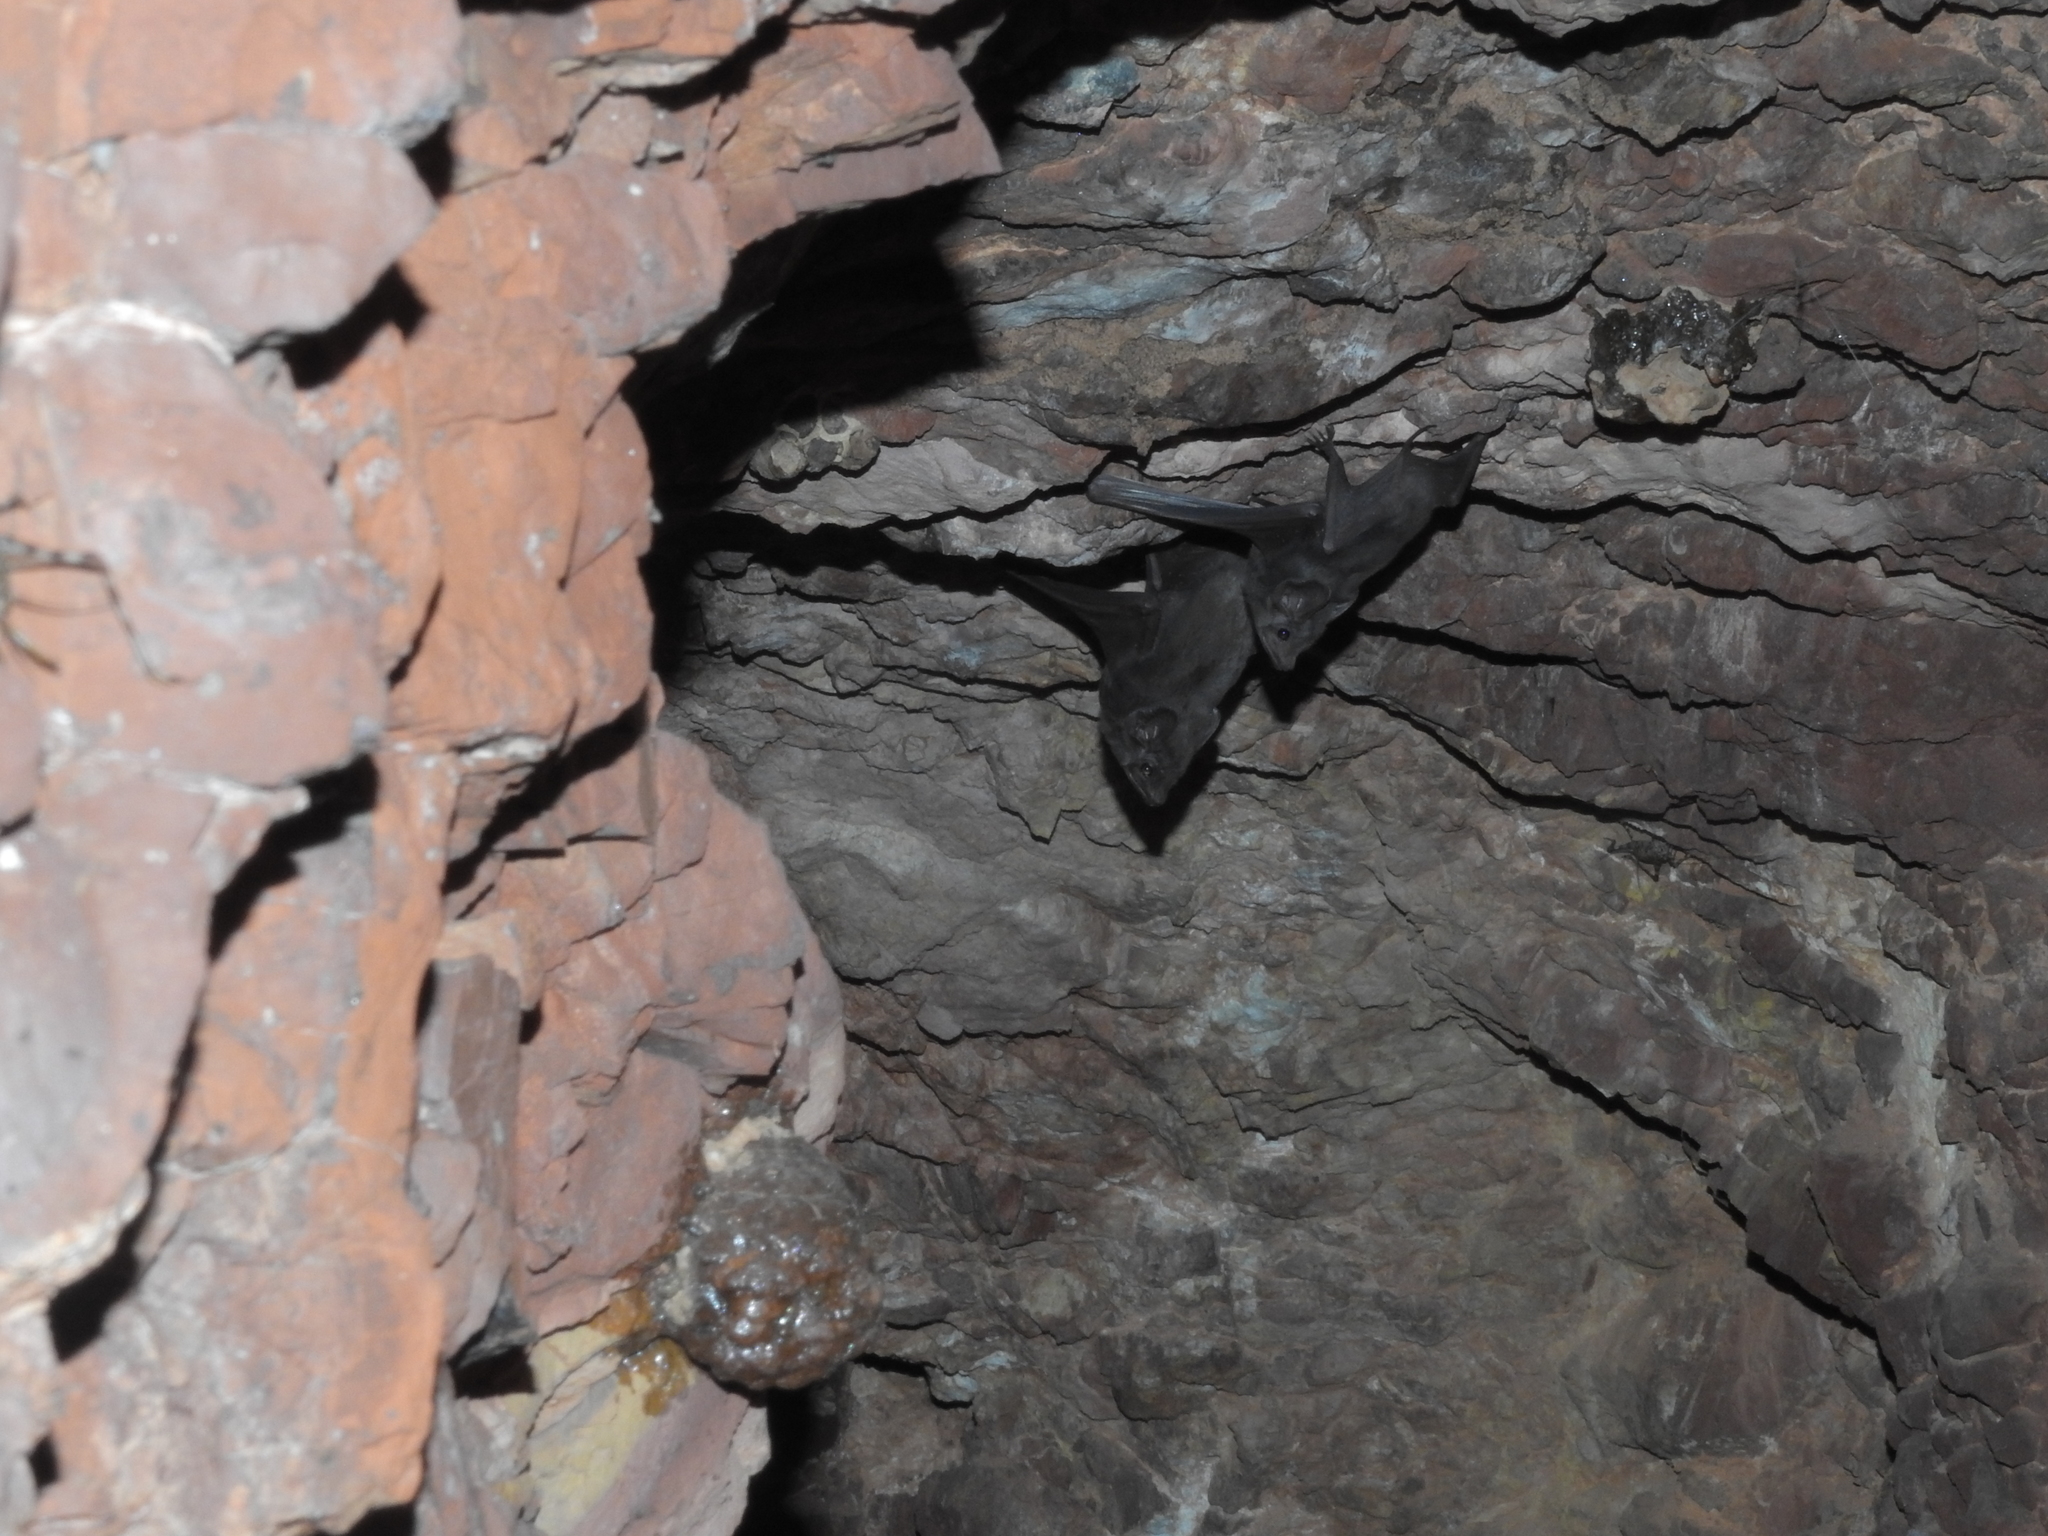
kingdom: Animalia
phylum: Chordata
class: Mammalia
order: Chiroptera
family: Emballonuridae
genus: Taphozous
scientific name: Taphozous hilli
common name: Hill's tomb bat
